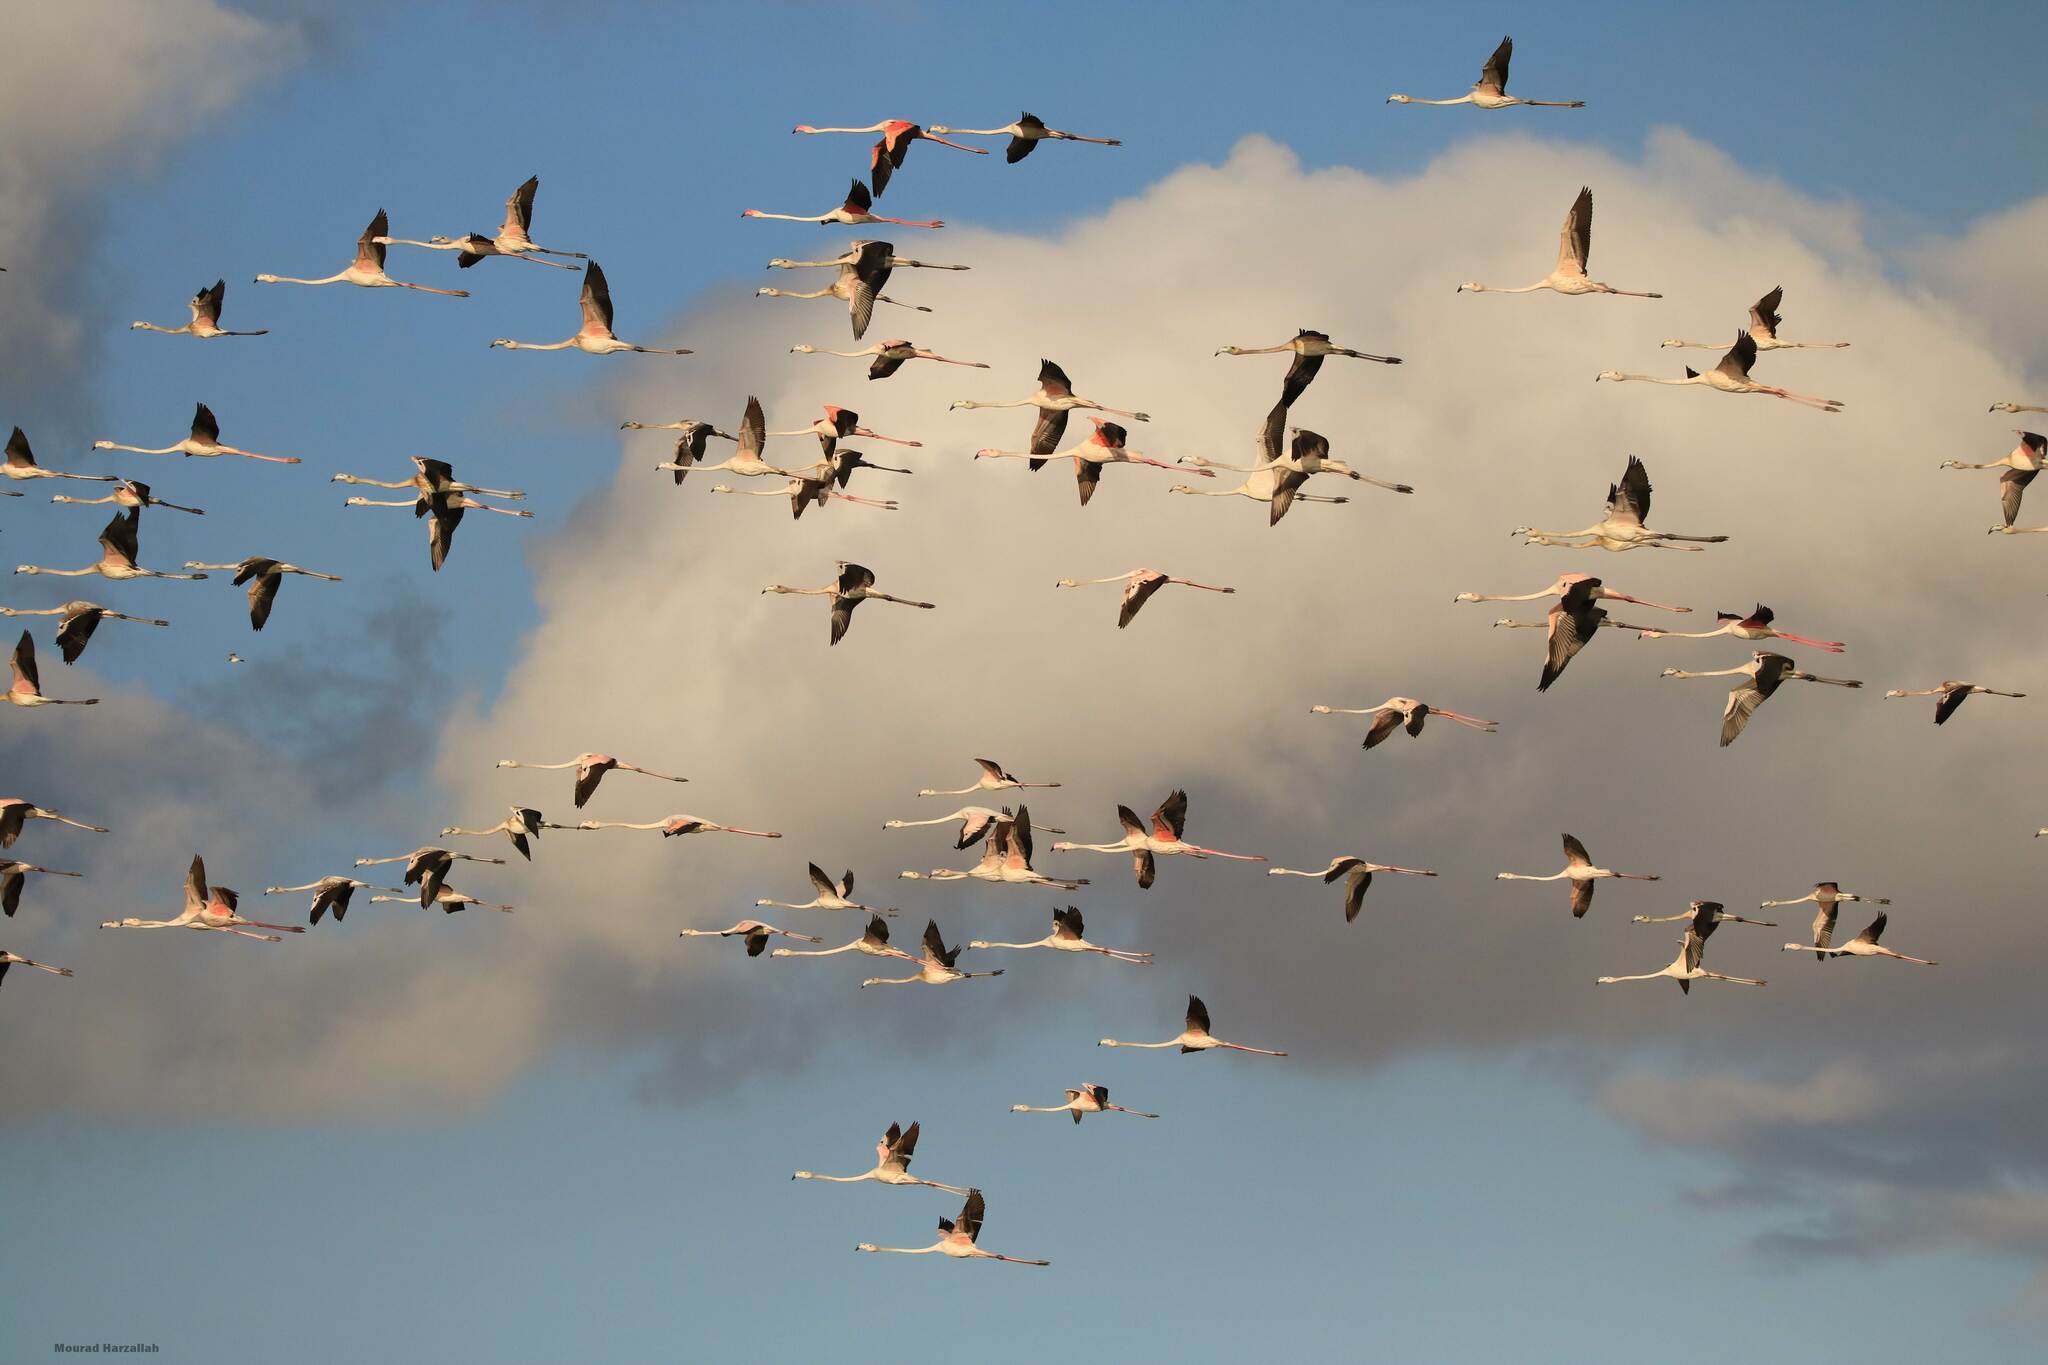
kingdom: Animalia
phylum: Chordata
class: Aves
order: Phoenicopteriformes
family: Phoenicopteridae
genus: Phoenicopterus
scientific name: Phoenicopterus roseus
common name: Greater flamingo
